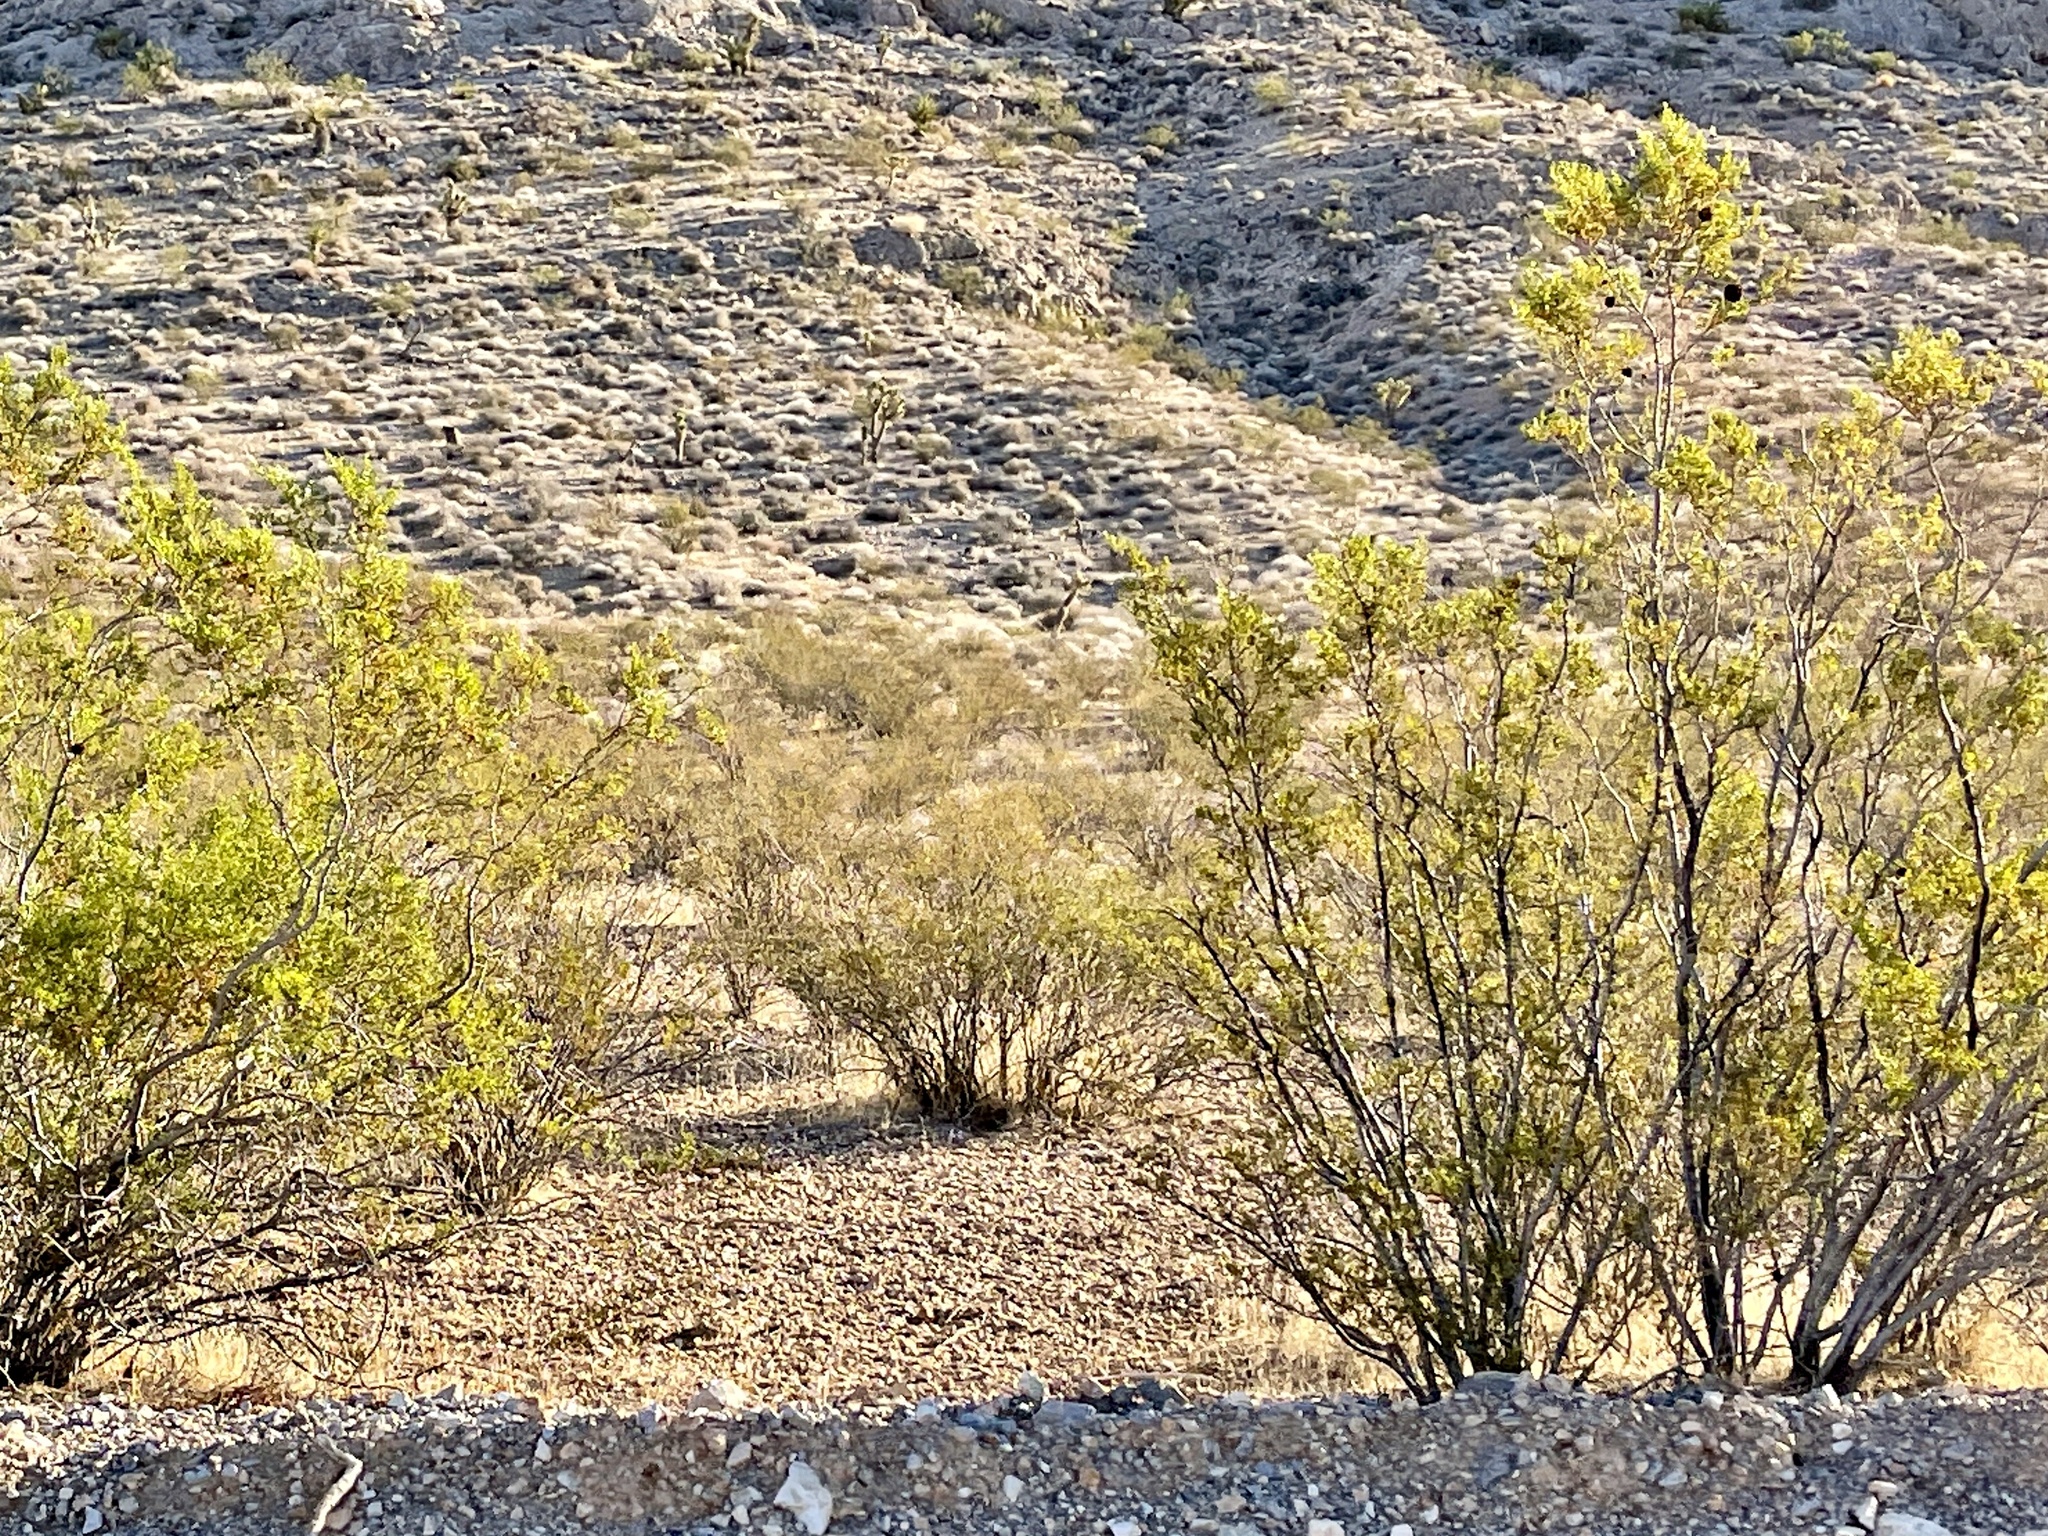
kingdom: Plantae
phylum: Tracheophyta
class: Magnoliopsida
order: Zygophyllales
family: Zygophyllaceae
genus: Larrea
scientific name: Larrea tridentata
